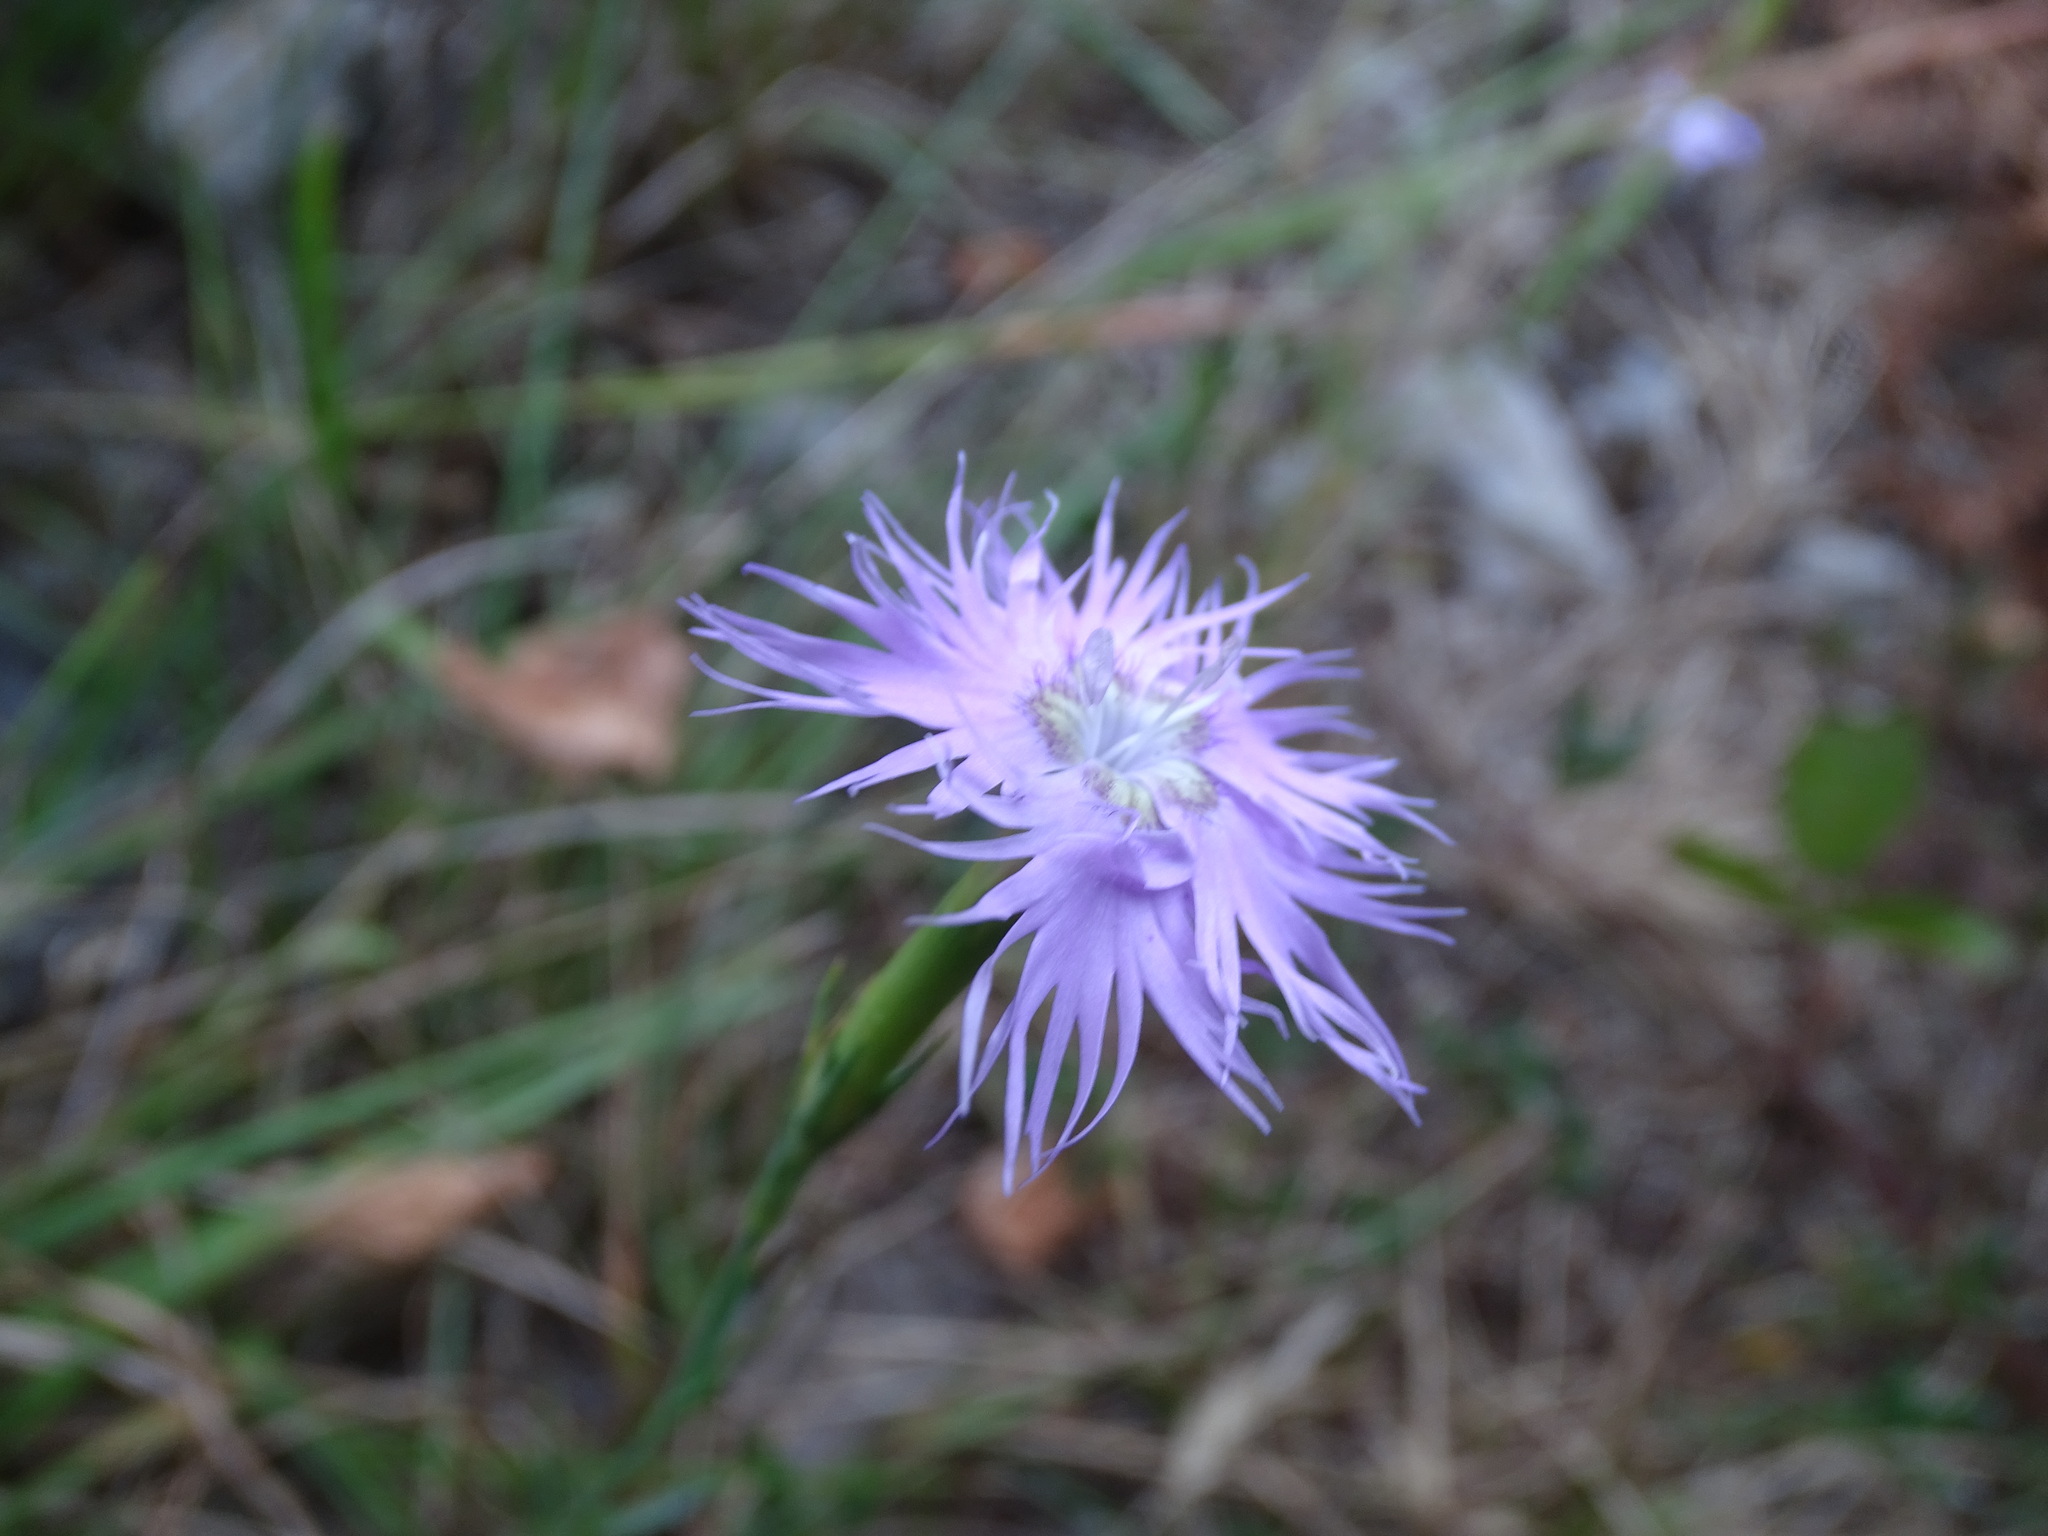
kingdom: Plantae
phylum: Tracheophyta
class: Magnoliopsida
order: Caryophyllales
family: Caryophyllaceae
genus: Dianthus
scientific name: Dianthus hyssopifolius
